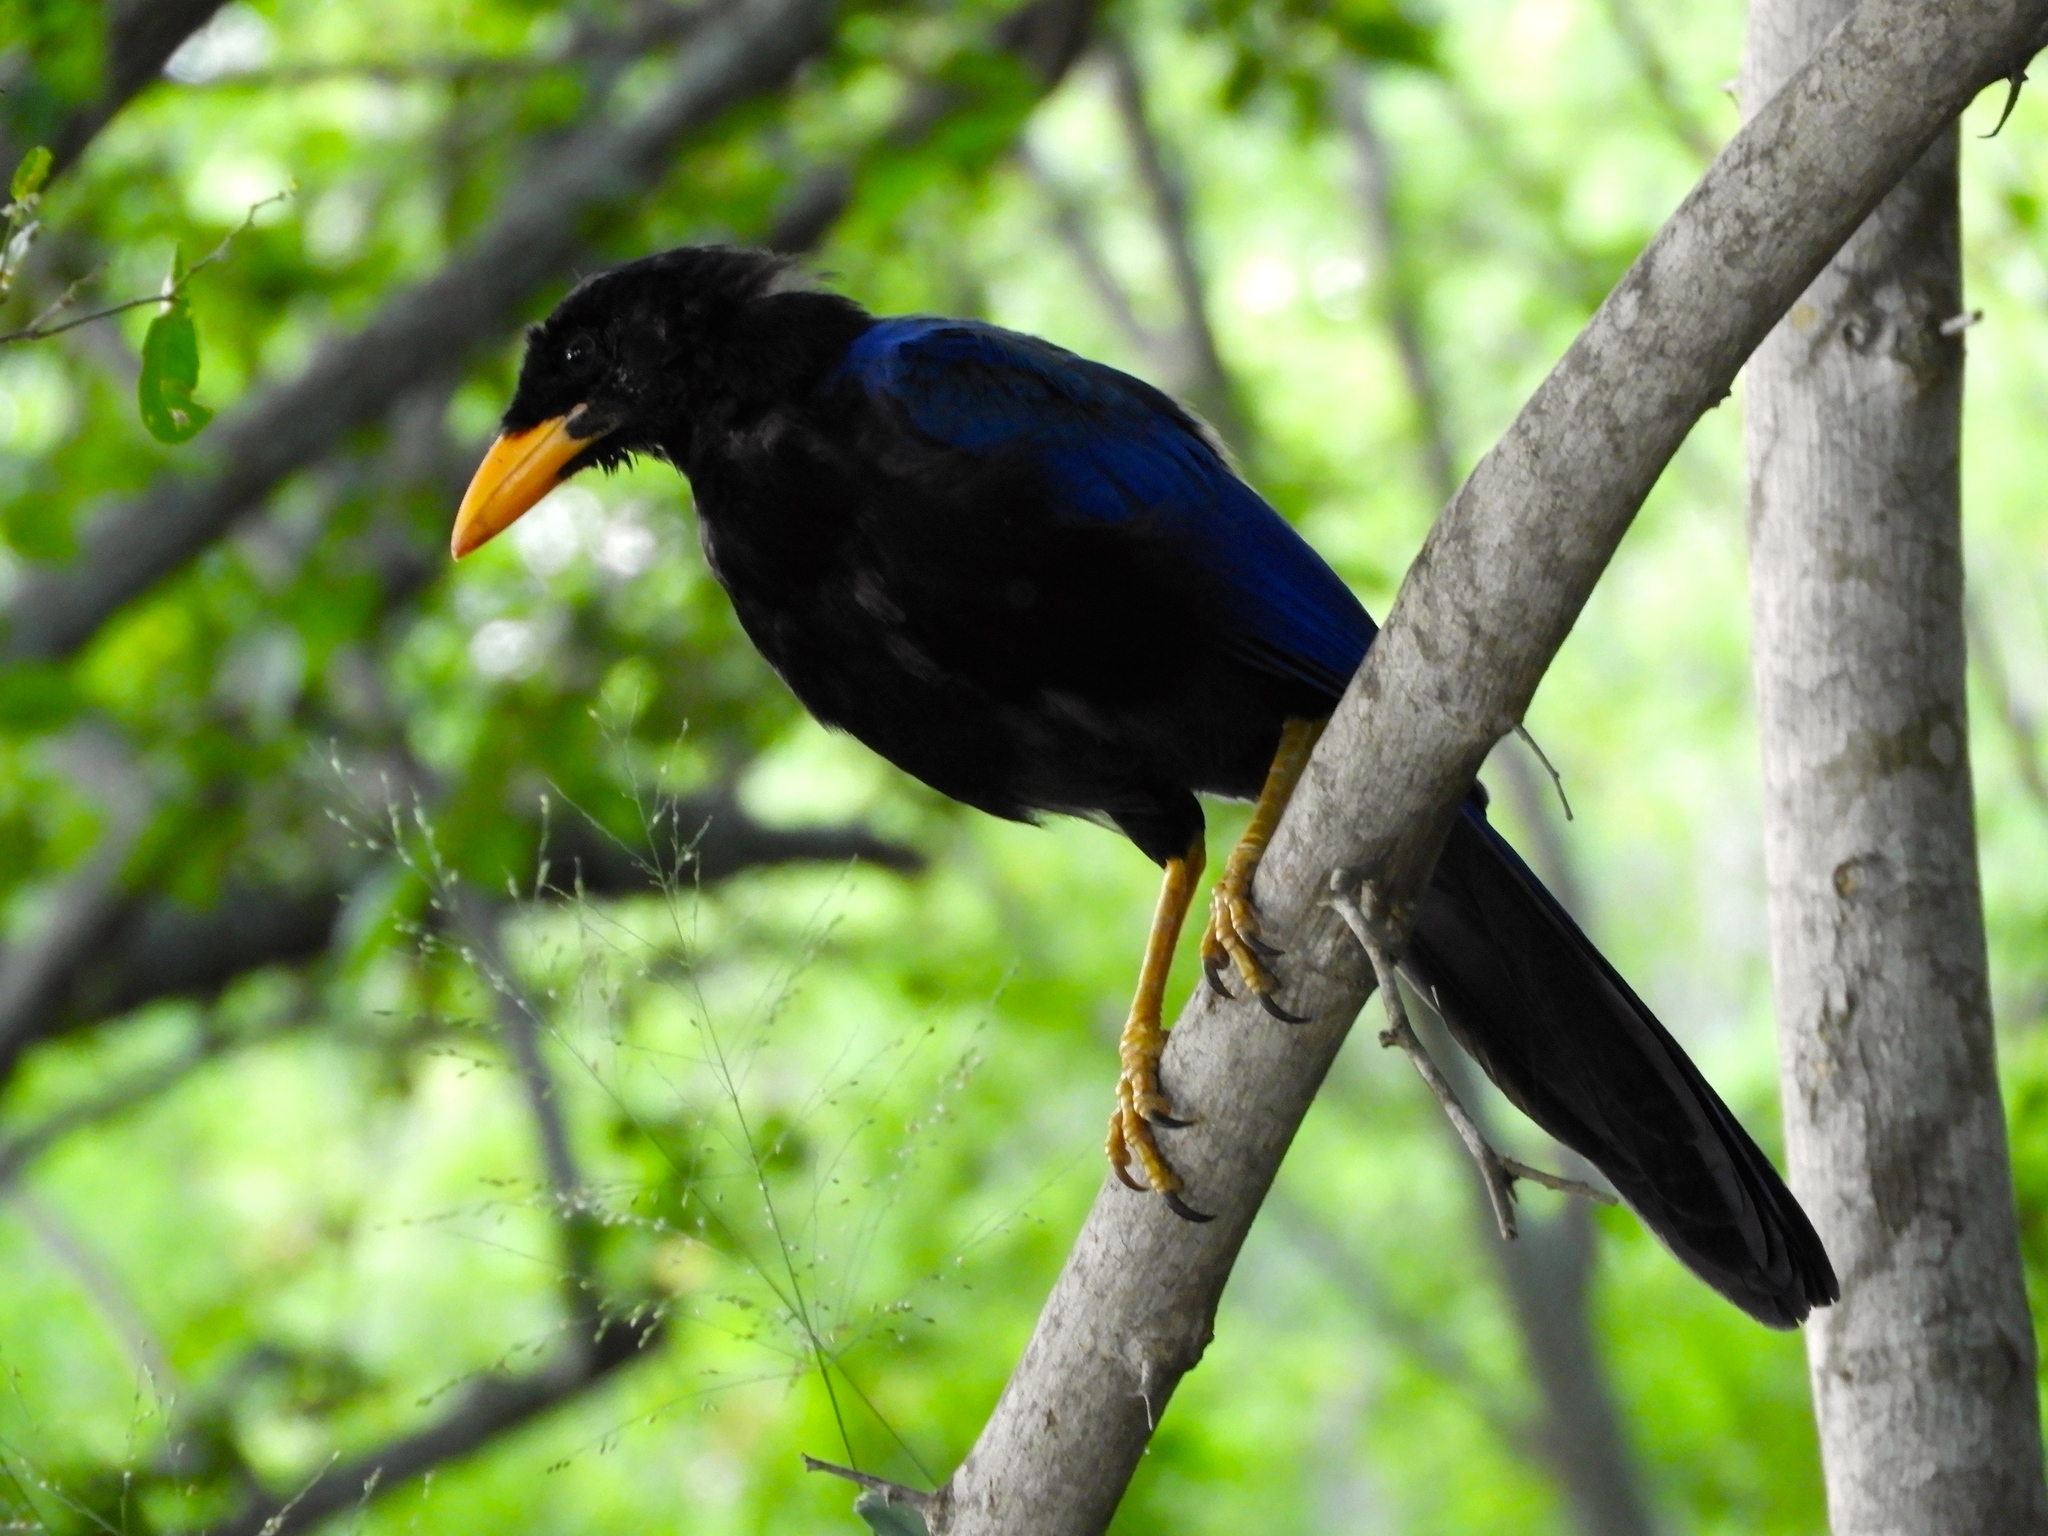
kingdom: Animalia
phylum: Chordata
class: Aves
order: Passeriformes
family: Corvidae
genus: Cyanocorax
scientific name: Cyanocorax beecheii
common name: Purplish-backed jay
